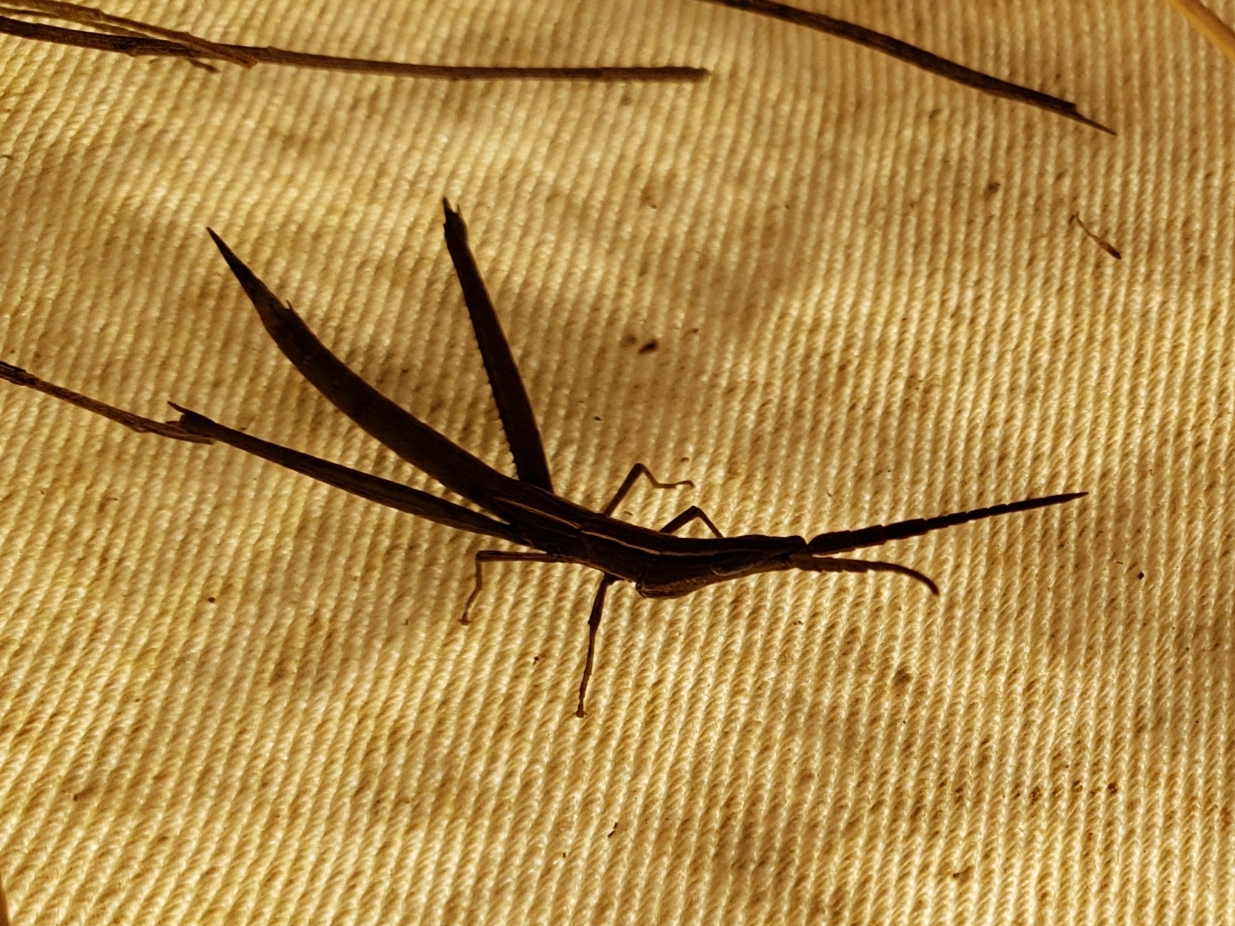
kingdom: Animalia
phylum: Arthropoda
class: Insecta
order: Orthoptera
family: Acrididae
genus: Achurum
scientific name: Achurum carinatum
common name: Long-headed toothpick grasshopper
